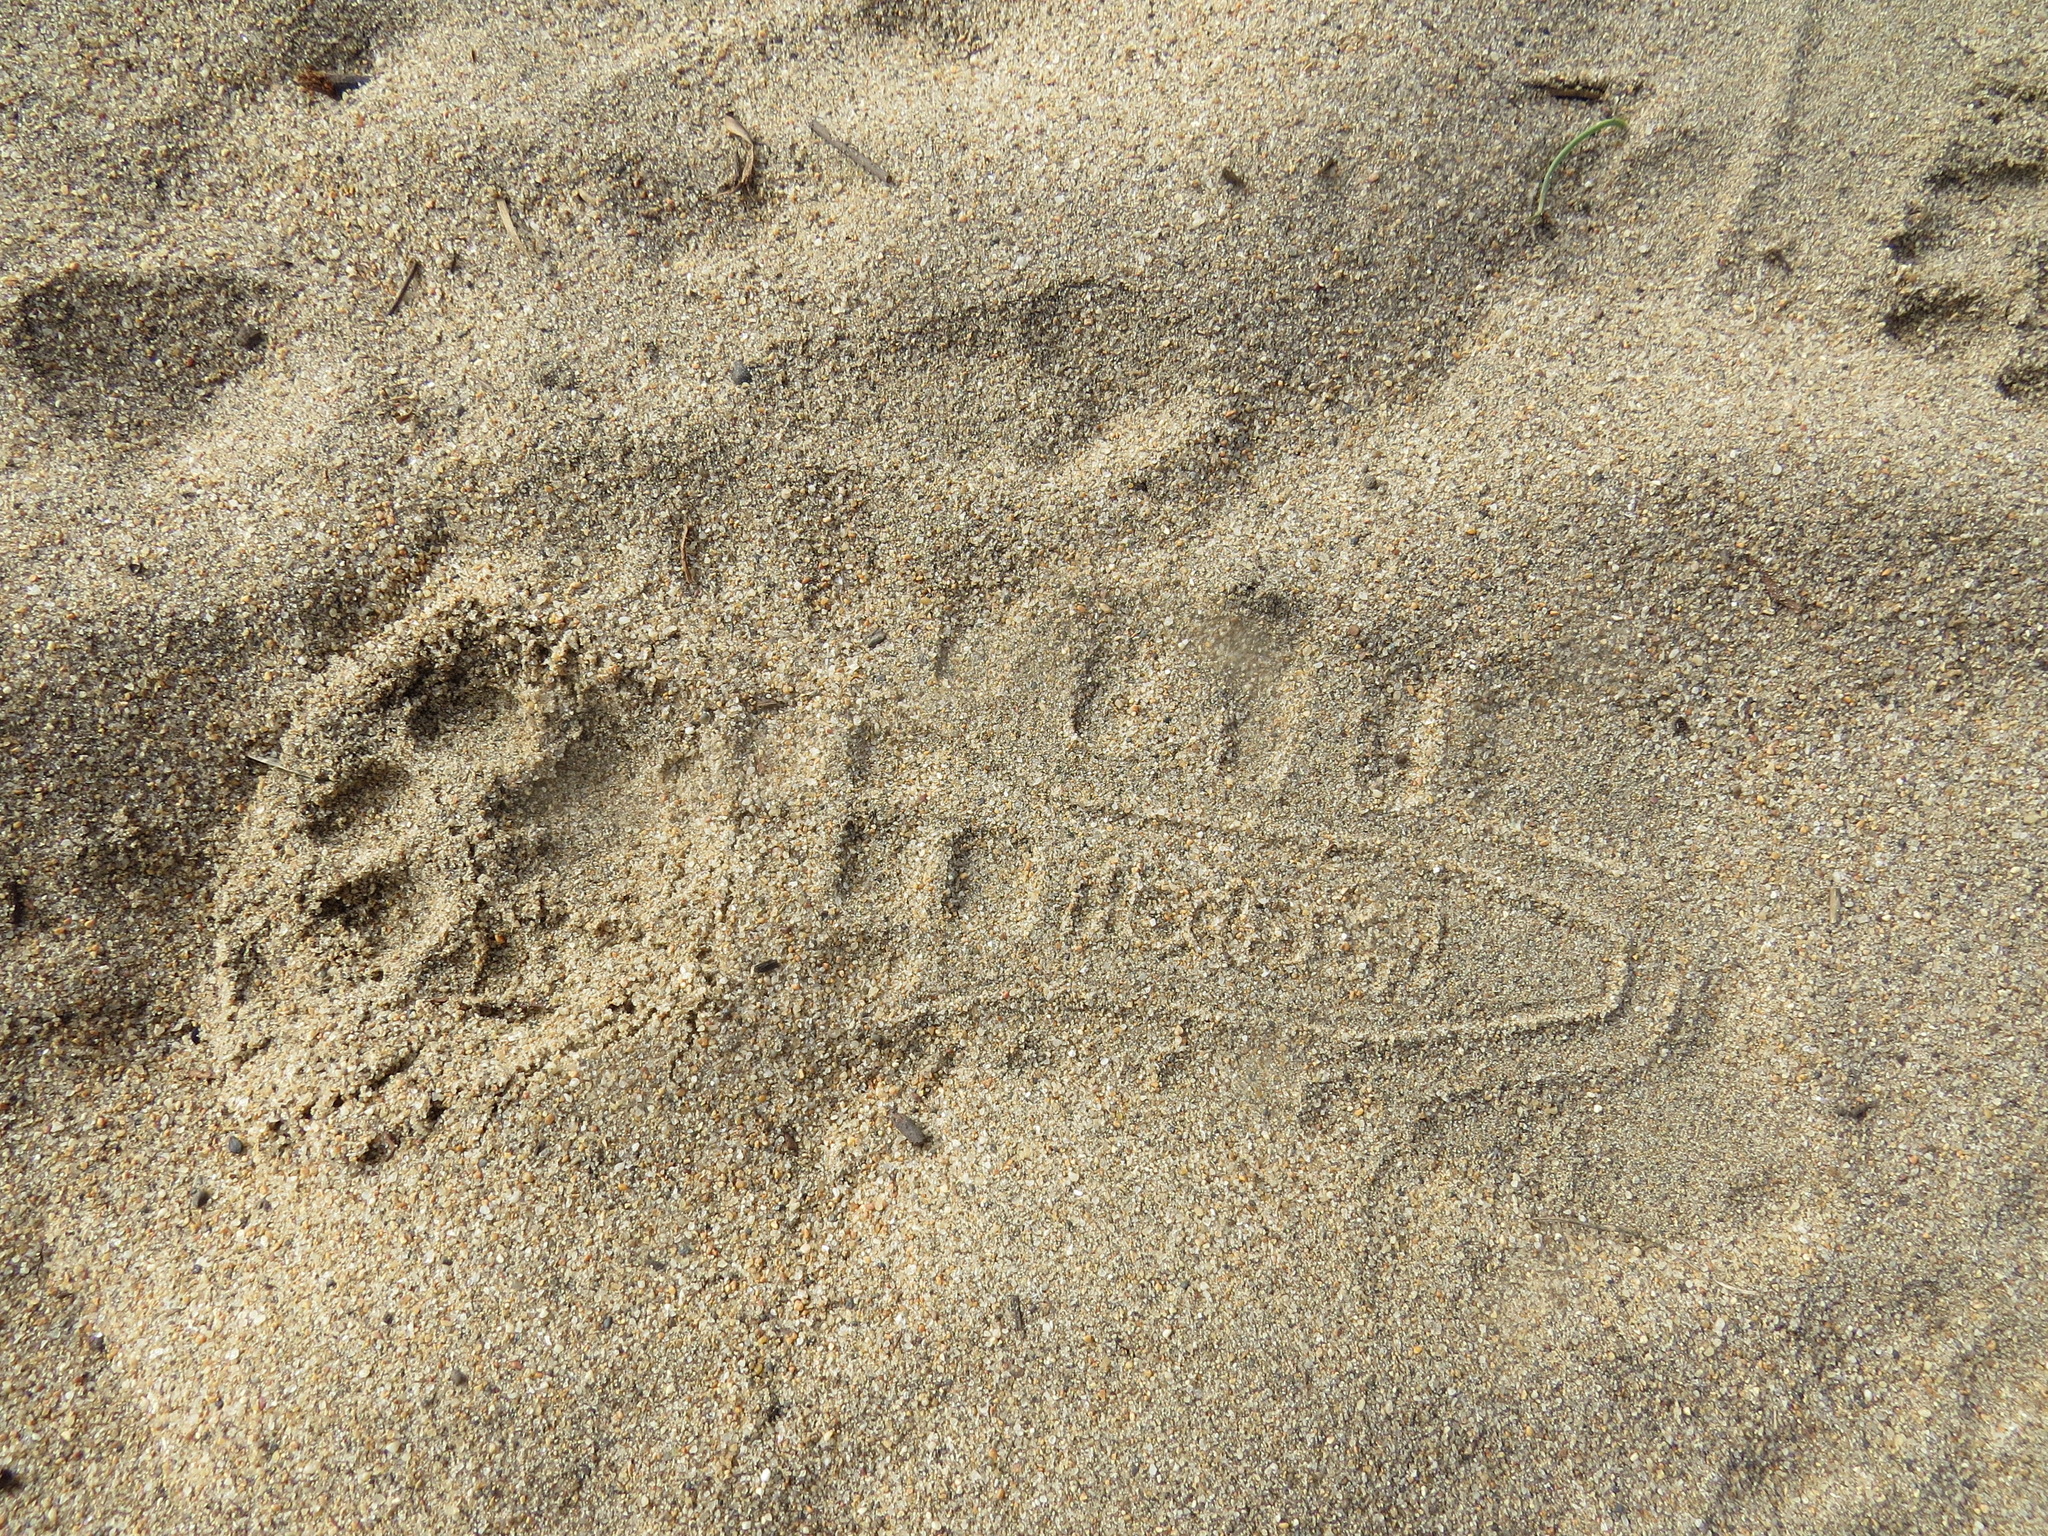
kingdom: Animalia
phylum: Chordata
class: Mammalia
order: Carnivora
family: Felidae
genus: Lynx
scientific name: Lynx rufus
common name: Bobcat
